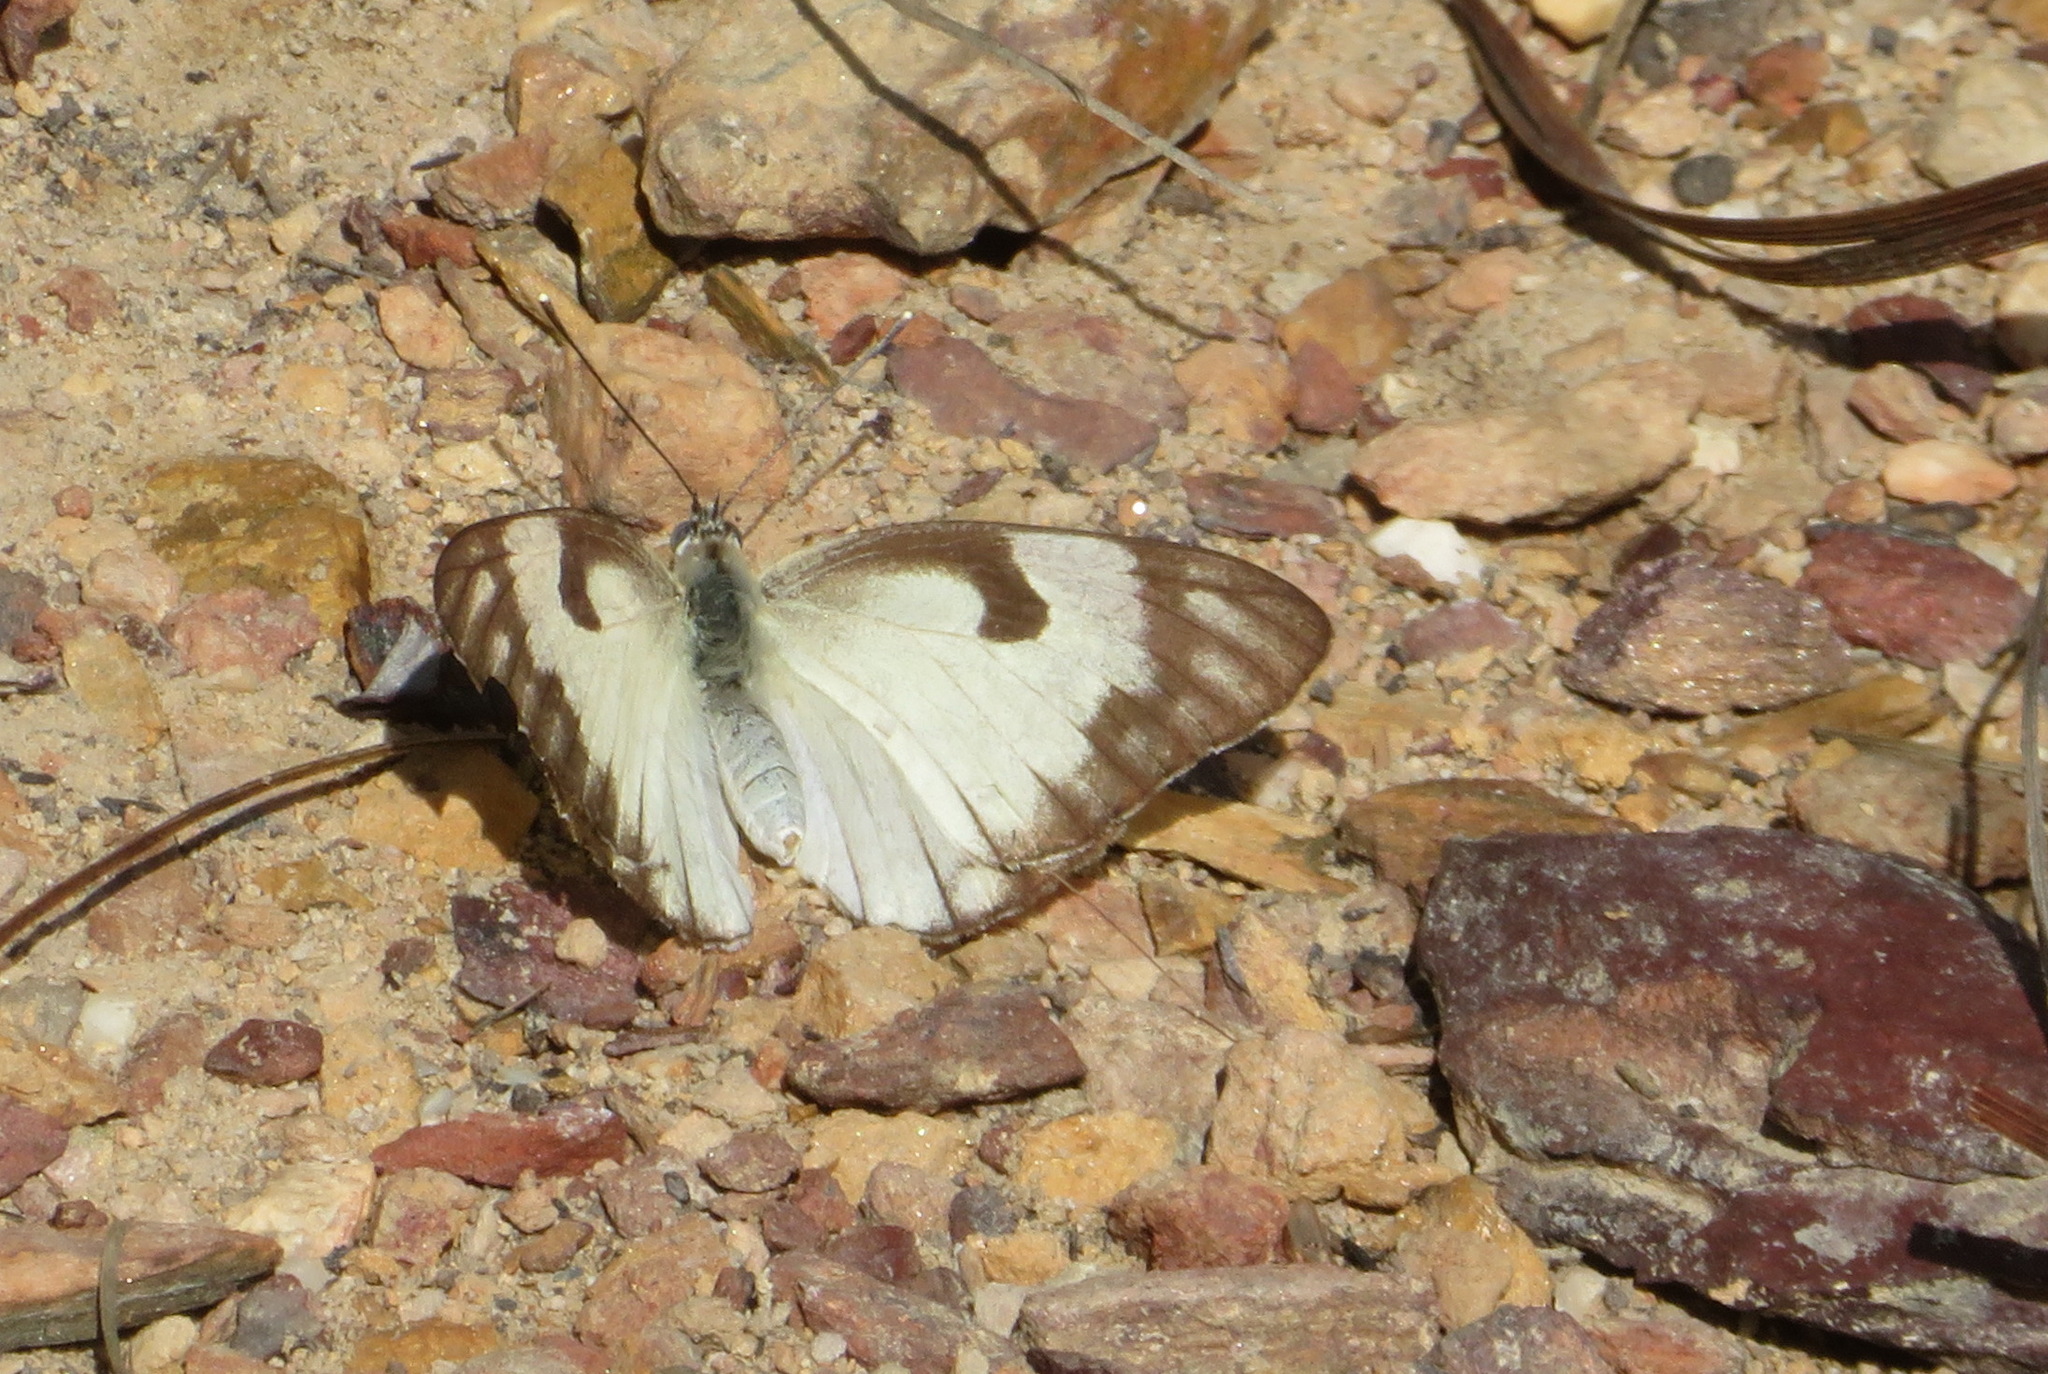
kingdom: Animalia
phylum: Arthropoda
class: Insecta
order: Lepidoptera
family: Pieridae
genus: Belenois
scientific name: Belenois aurota
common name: Brown-veined white
